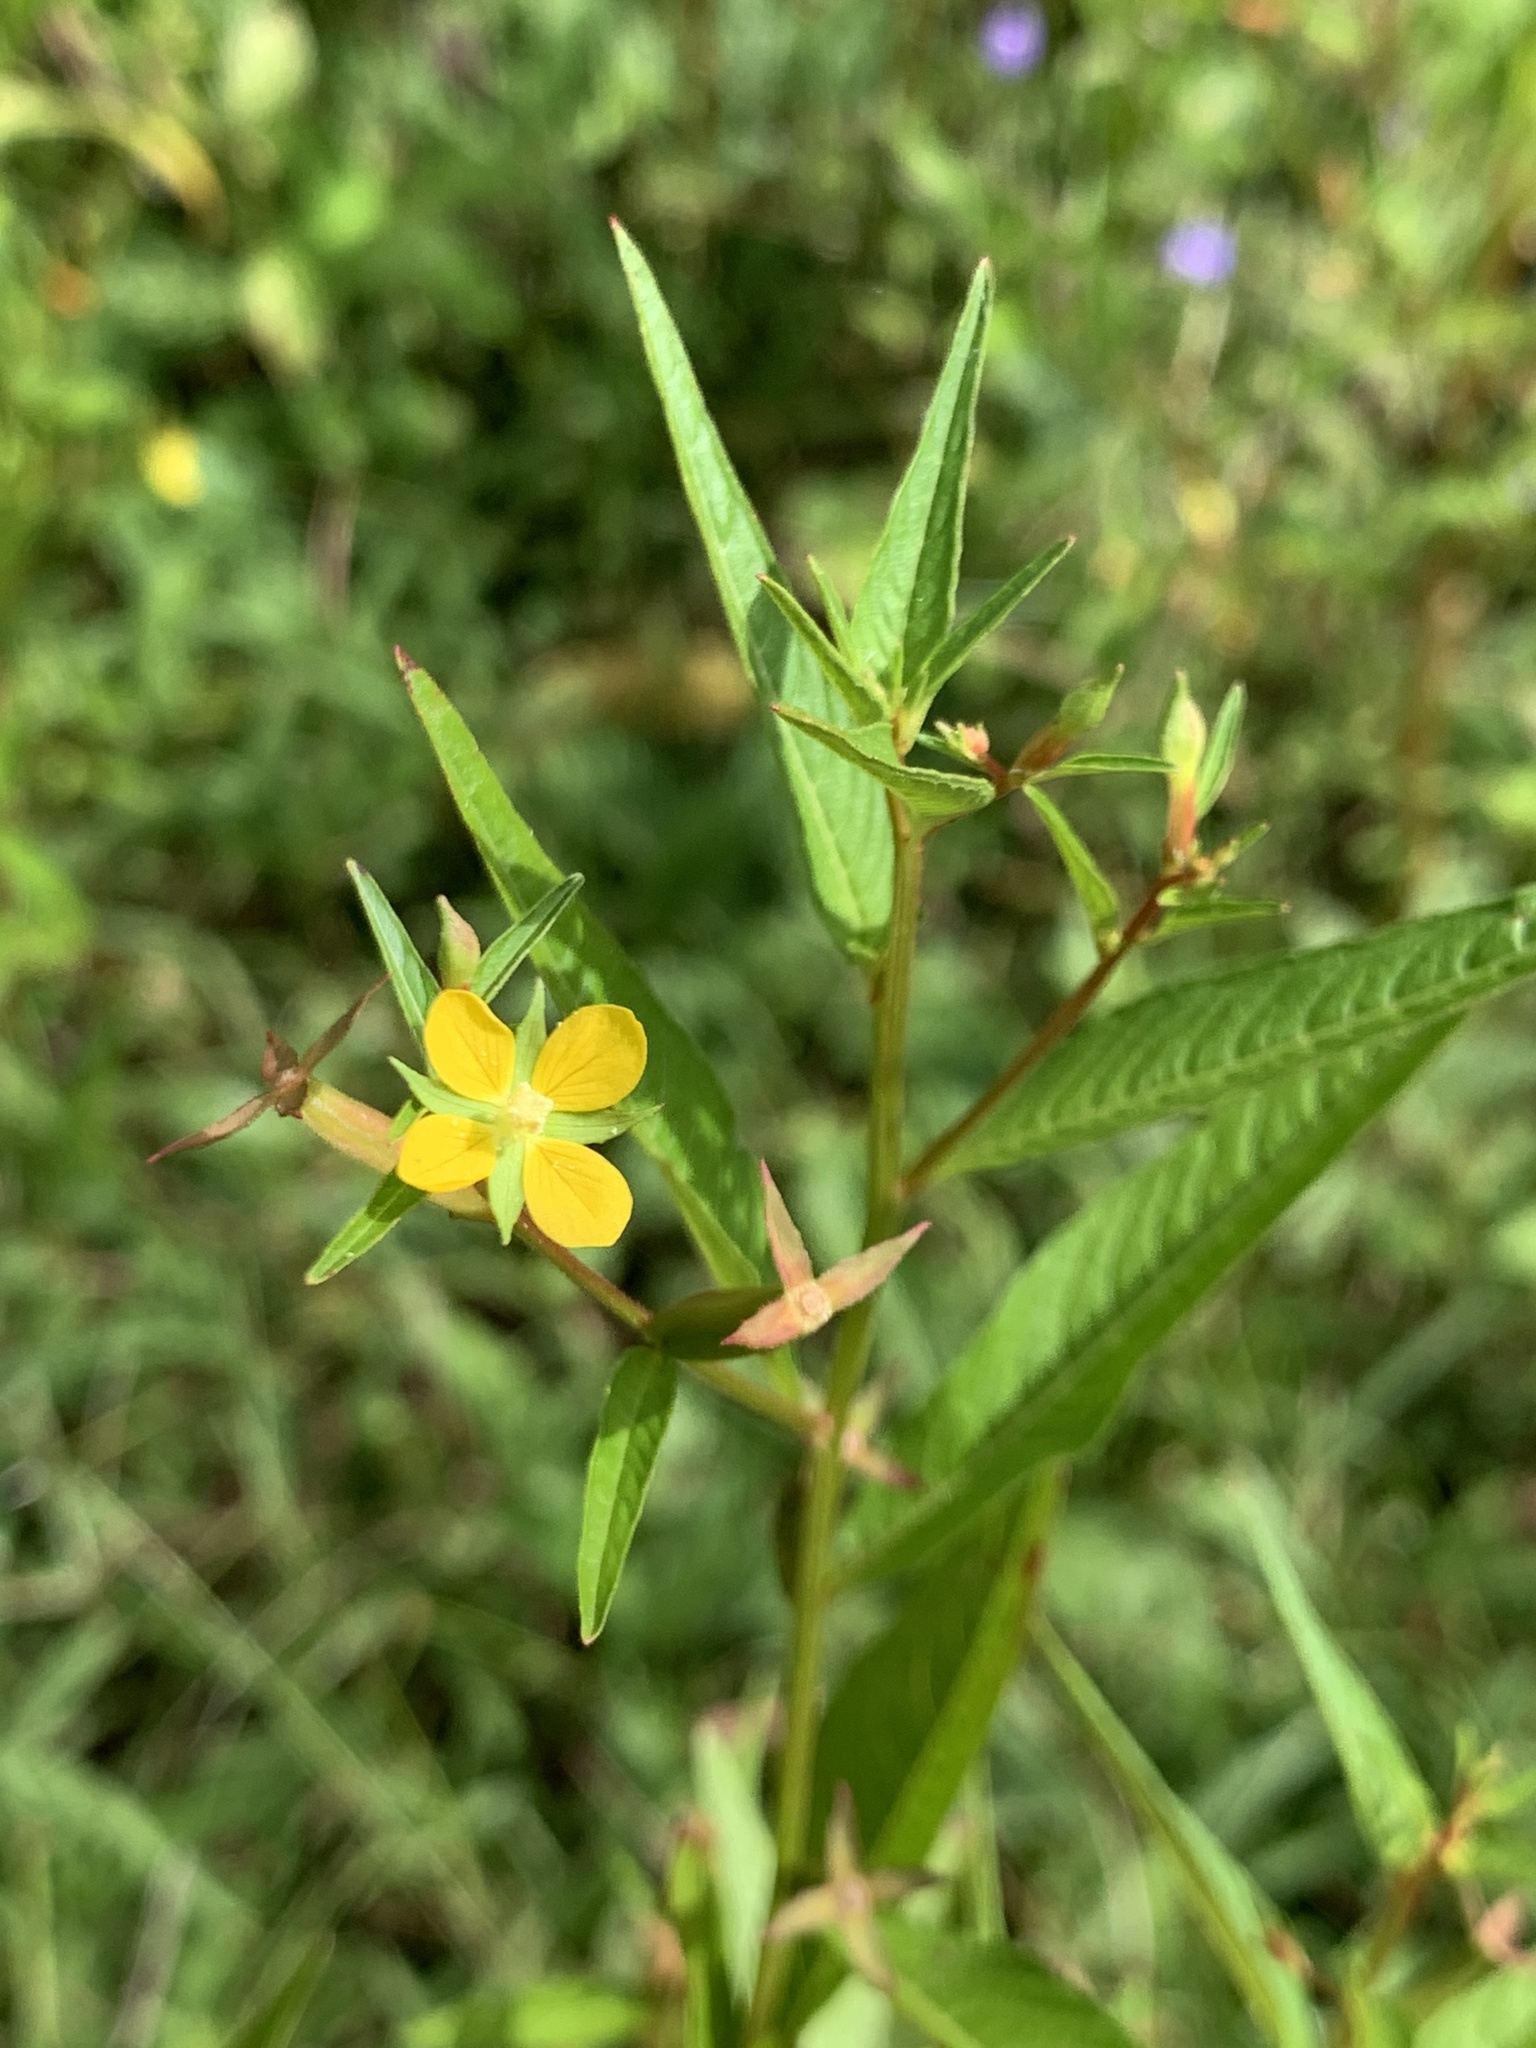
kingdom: Plantae
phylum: Tracheophyta
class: Magnoliopsida
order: Myrtales
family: Onagraceae
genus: Ludwigia
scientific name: Ludwigia erecta
